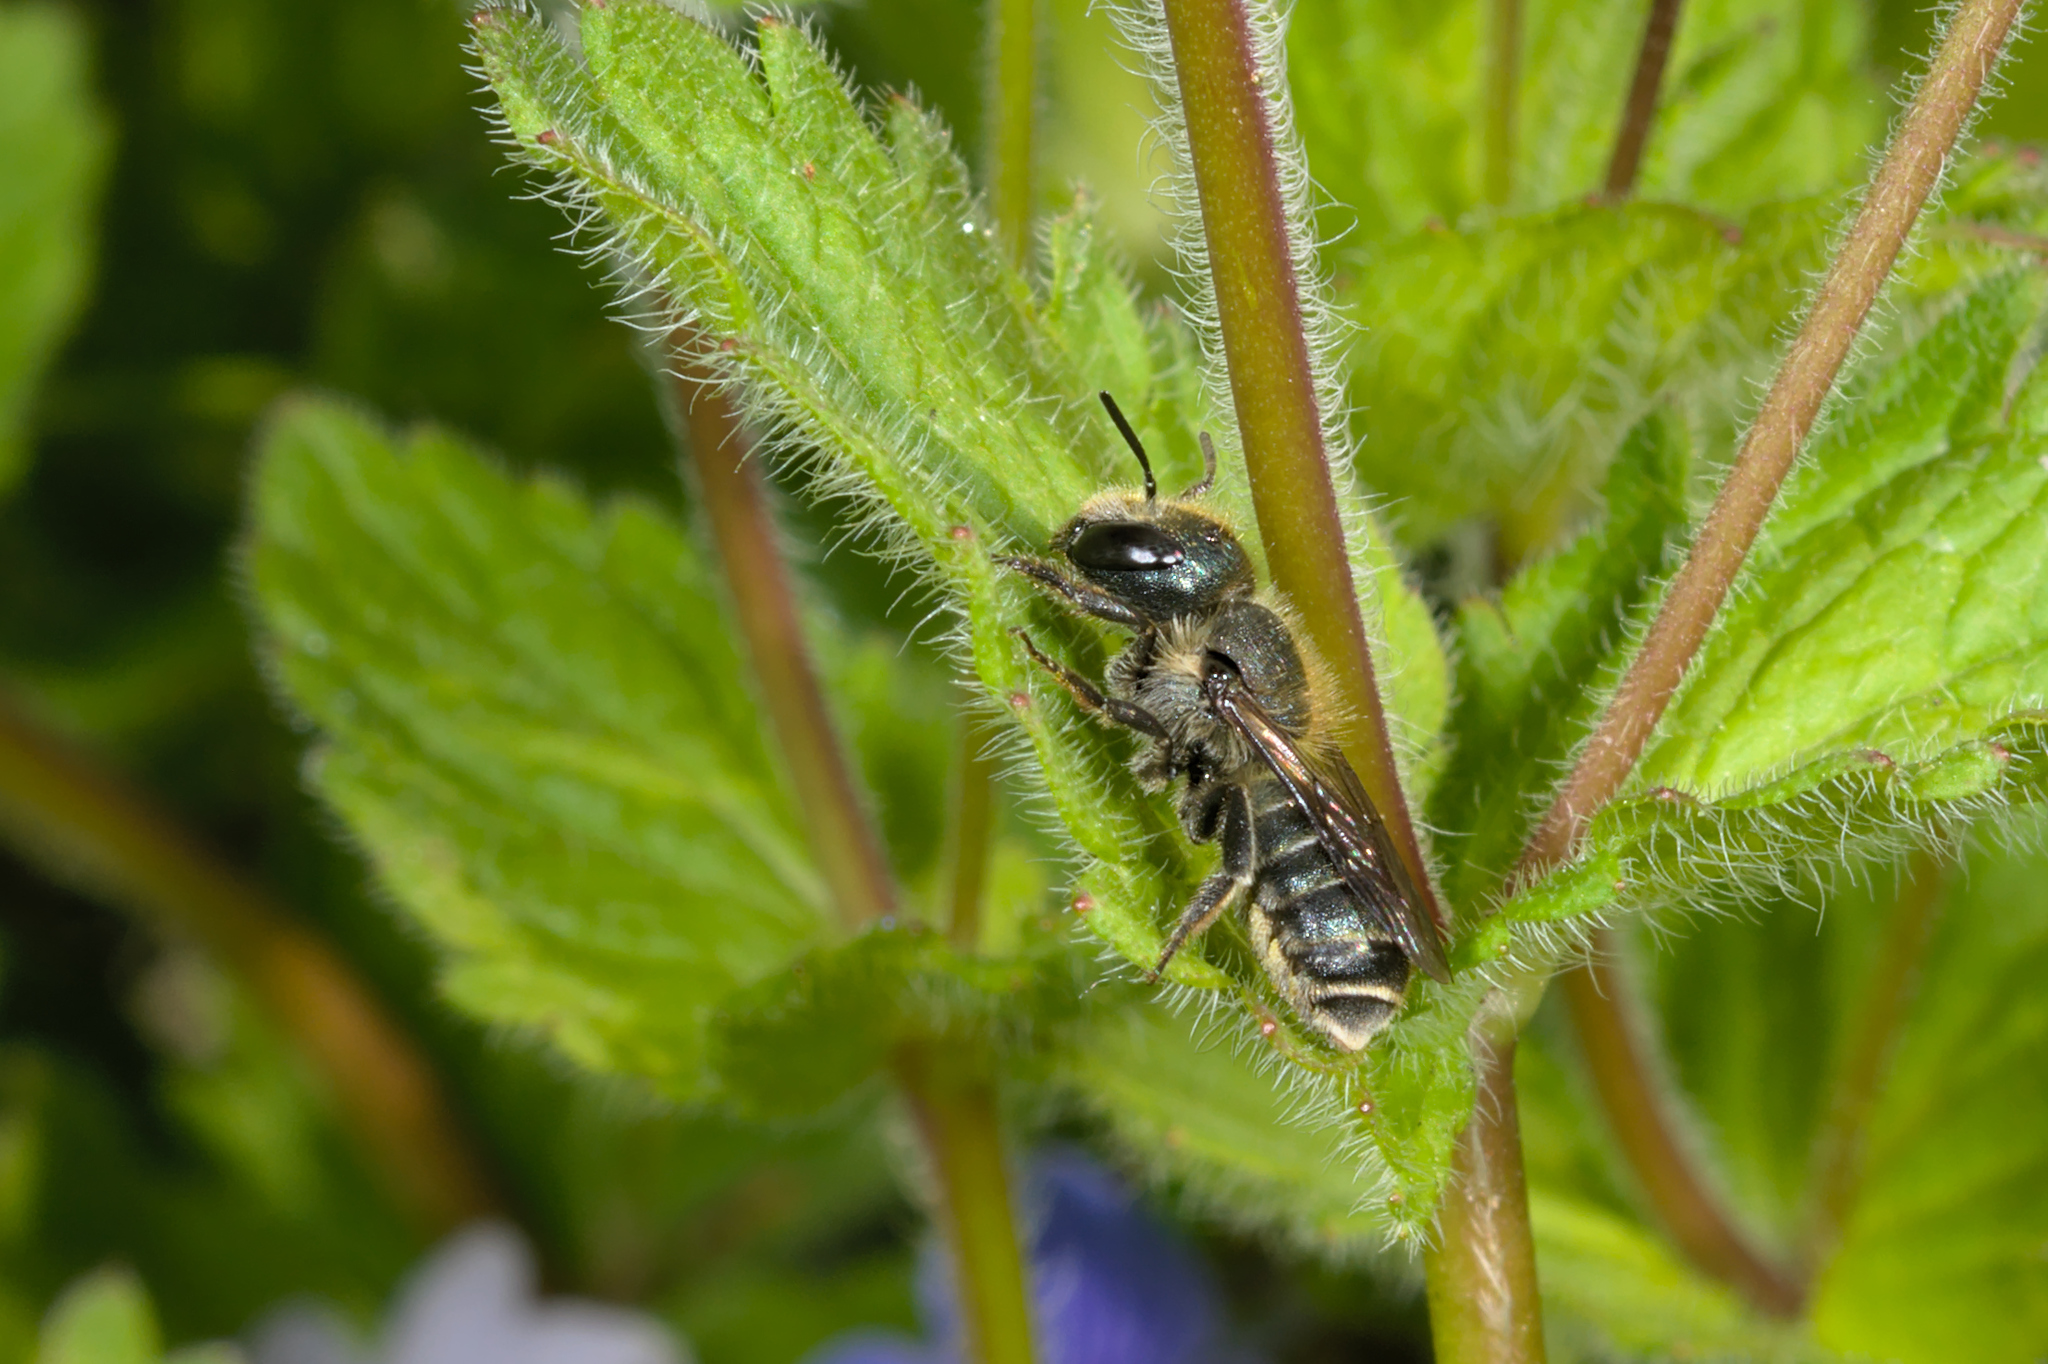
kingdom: Animalia
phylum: Arthropoda
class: Insecta
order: Hymenoptera
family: Megachilidae
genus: Osmia
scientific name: Osmia caerulescens
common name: Blue mason bee
